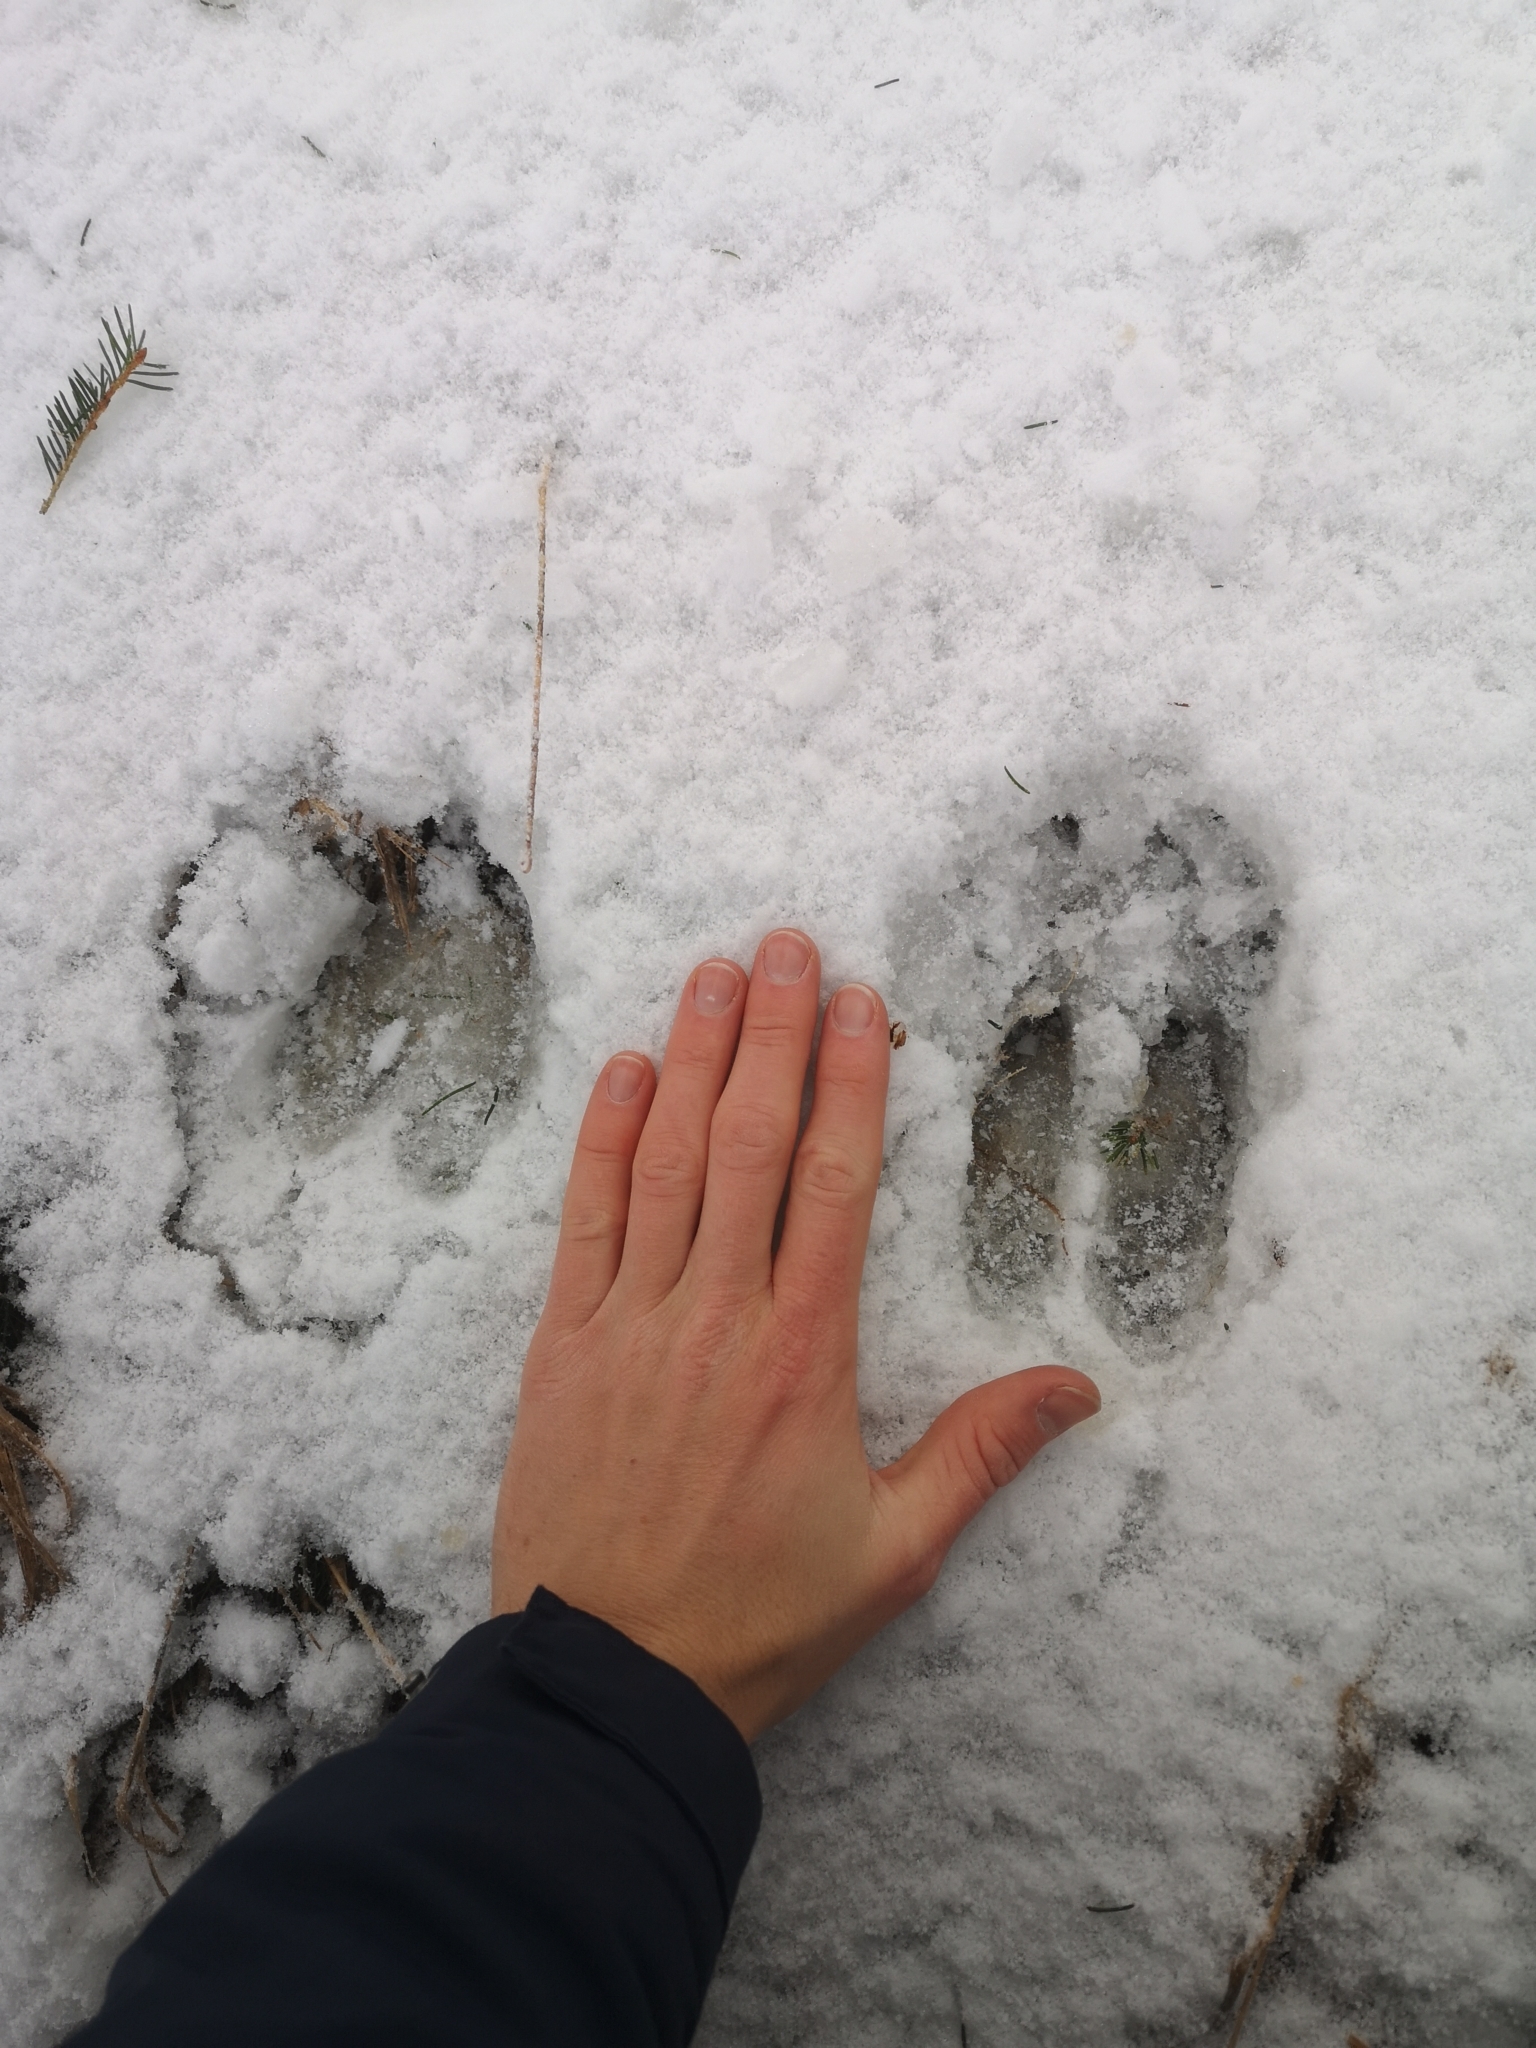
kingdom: Animalia
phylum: Chordata
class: Mammalia
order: Artiodactyla
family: Cervidae
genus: Cervus
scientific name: Cervus elaphus
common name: Red deer
